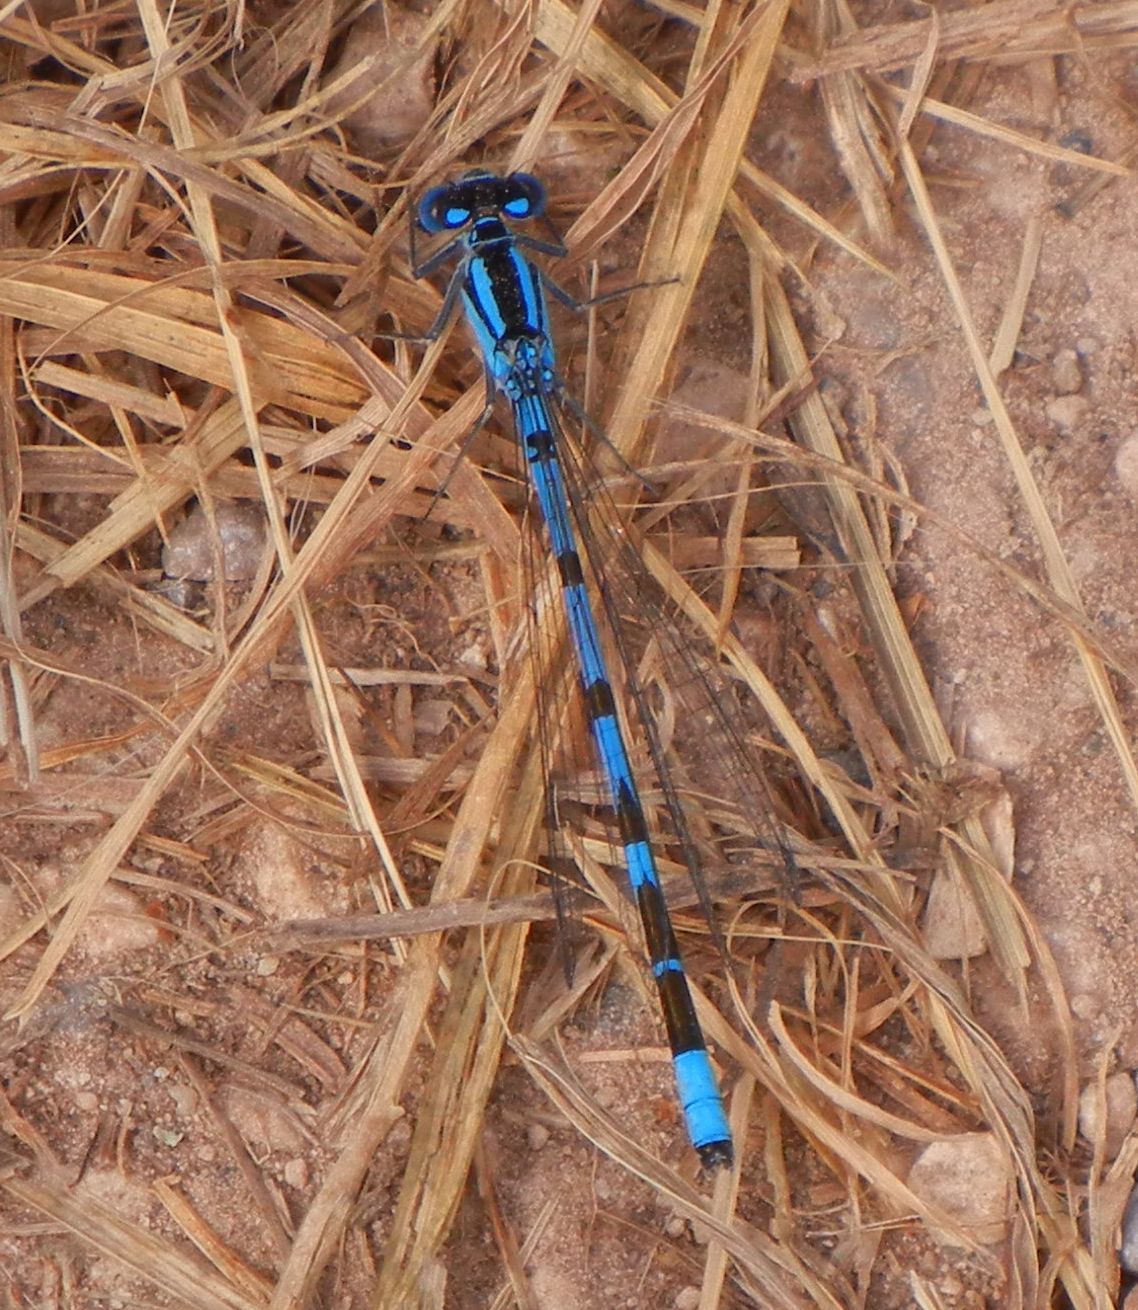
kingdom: Animalia
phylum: Arthropoda
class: Insecta
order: Odonata
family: Coenagrionidae
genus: Enallagma
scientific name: Enallagma cyathigerum
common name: Common blue damselfly
